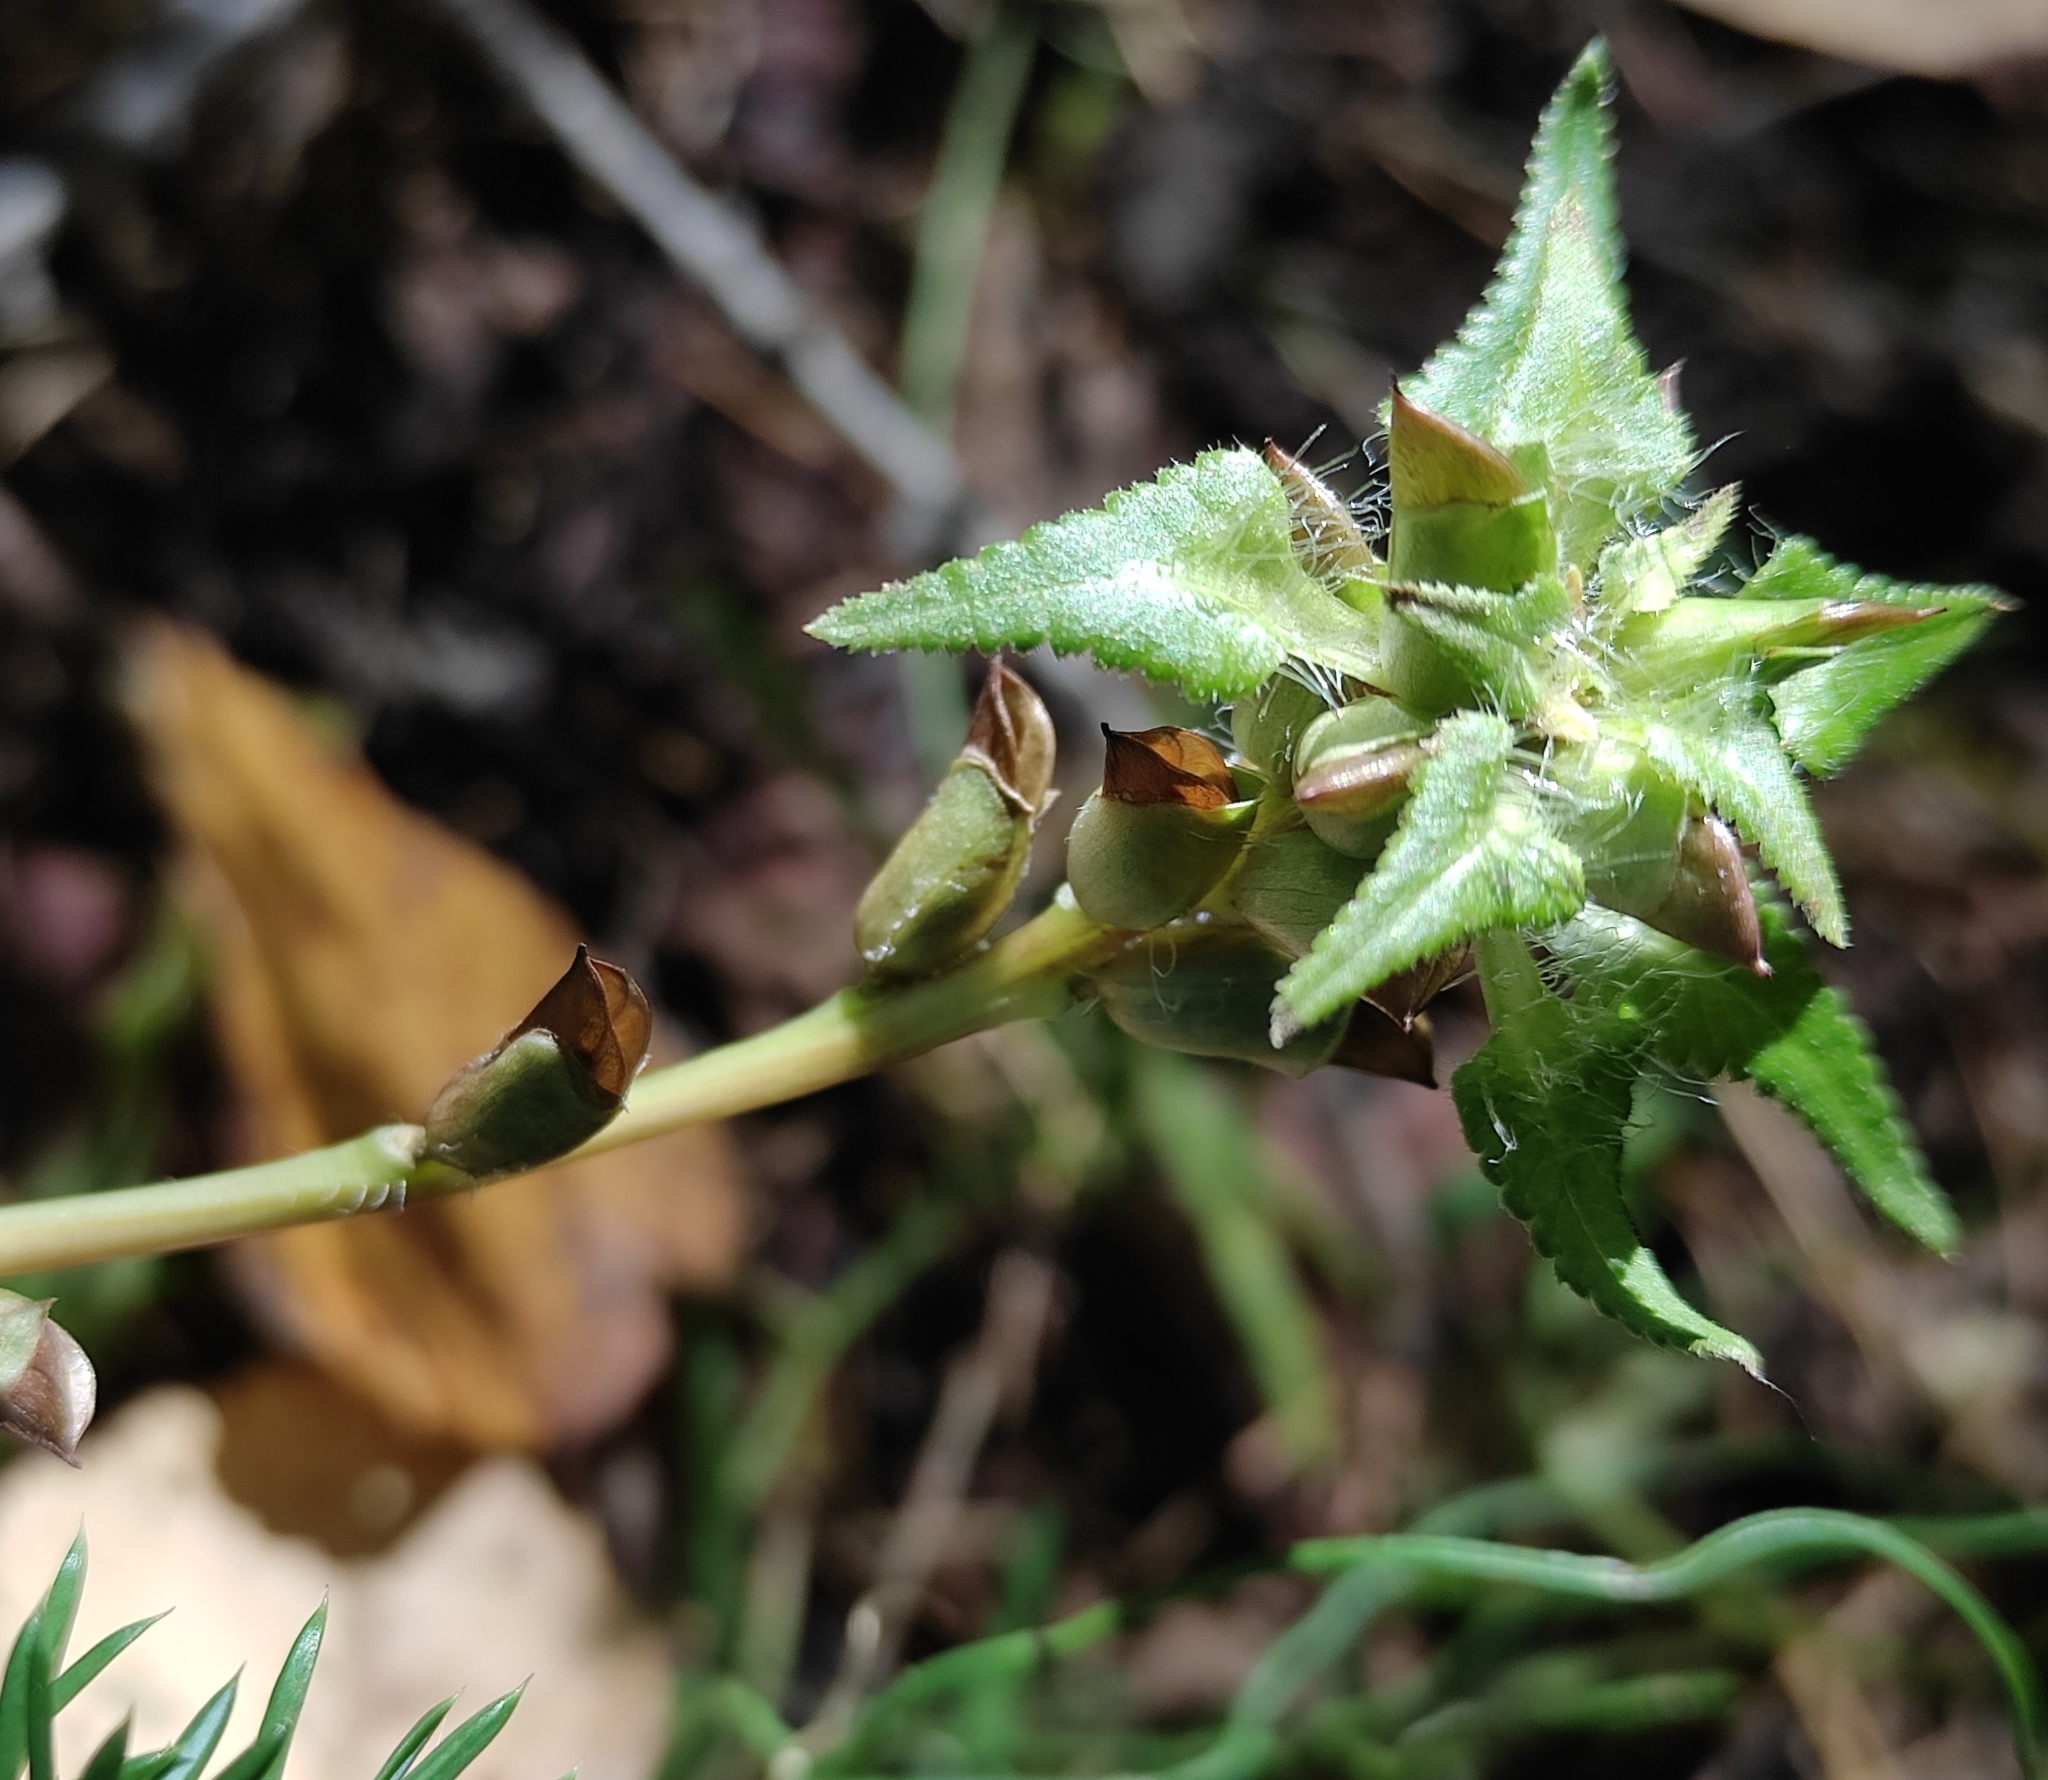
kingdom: Plantae
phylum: Tracheophyta
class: Magnoliopsida
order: Lamiales
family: Orobanchaceae
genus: Pedicularis
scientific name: Pedicularis resupinata
